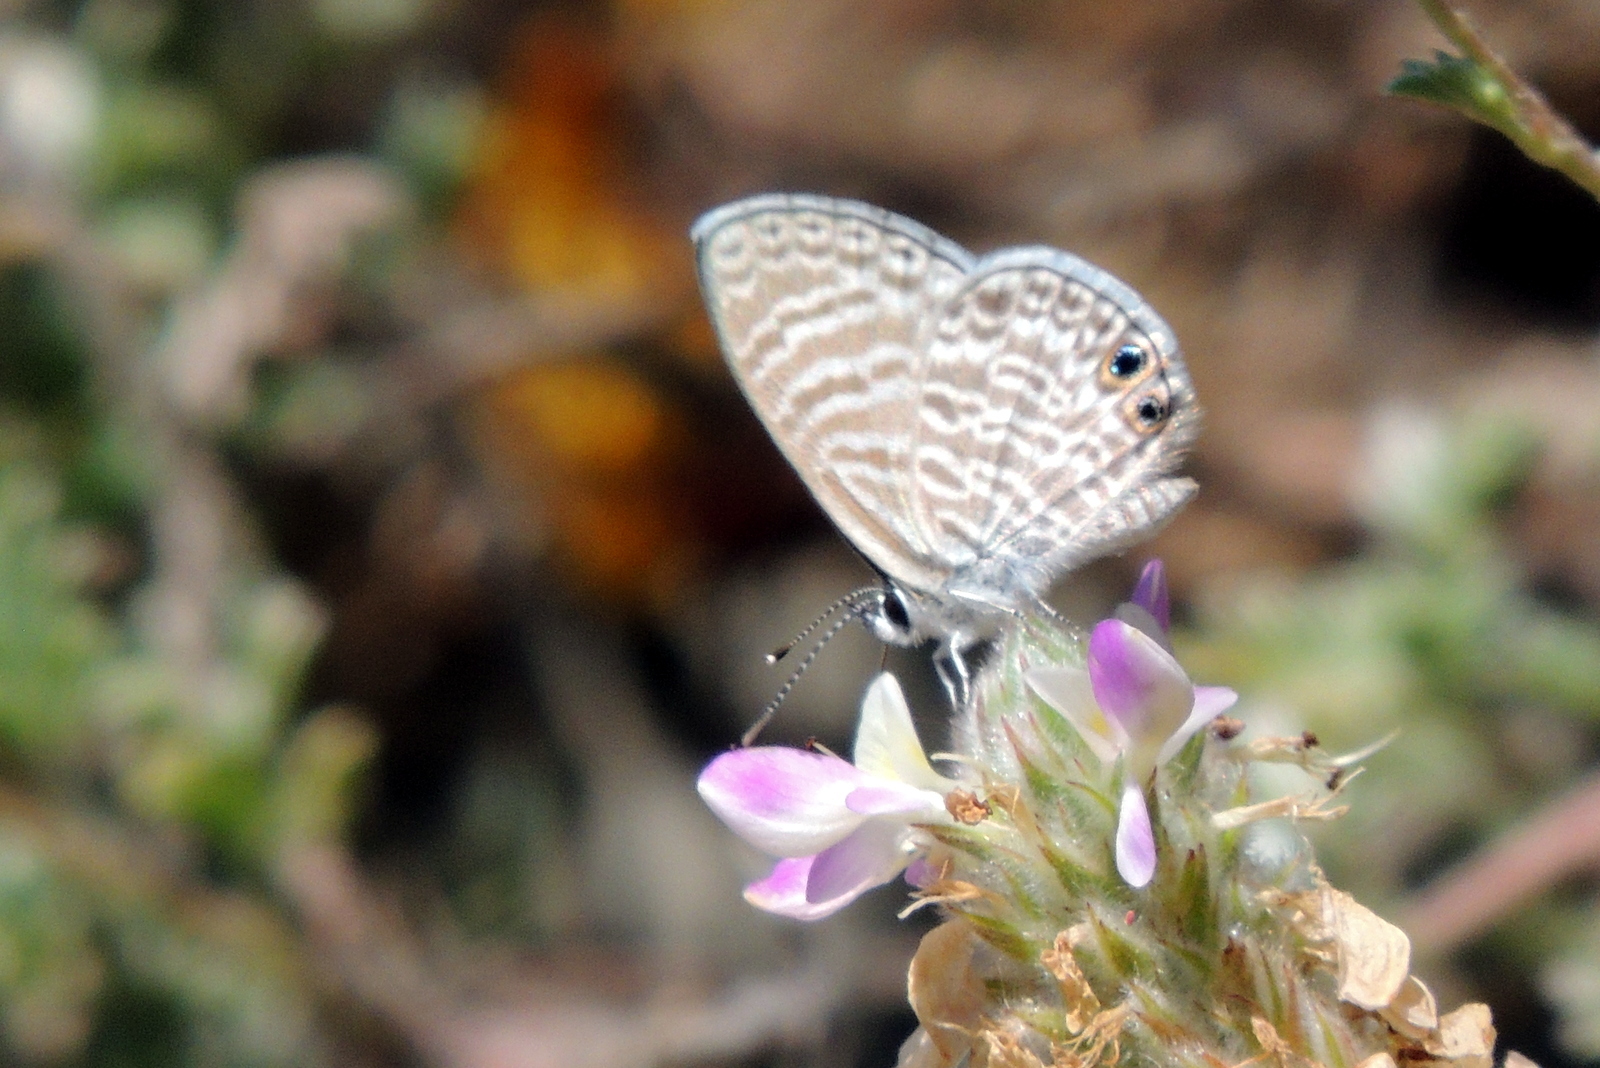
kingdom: Animalia
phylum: Arthropoda
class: Insecta
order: Lepidoptera
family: Lycaenidae
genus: Leptotes
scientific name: Leptotes marina
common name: Marine blue
